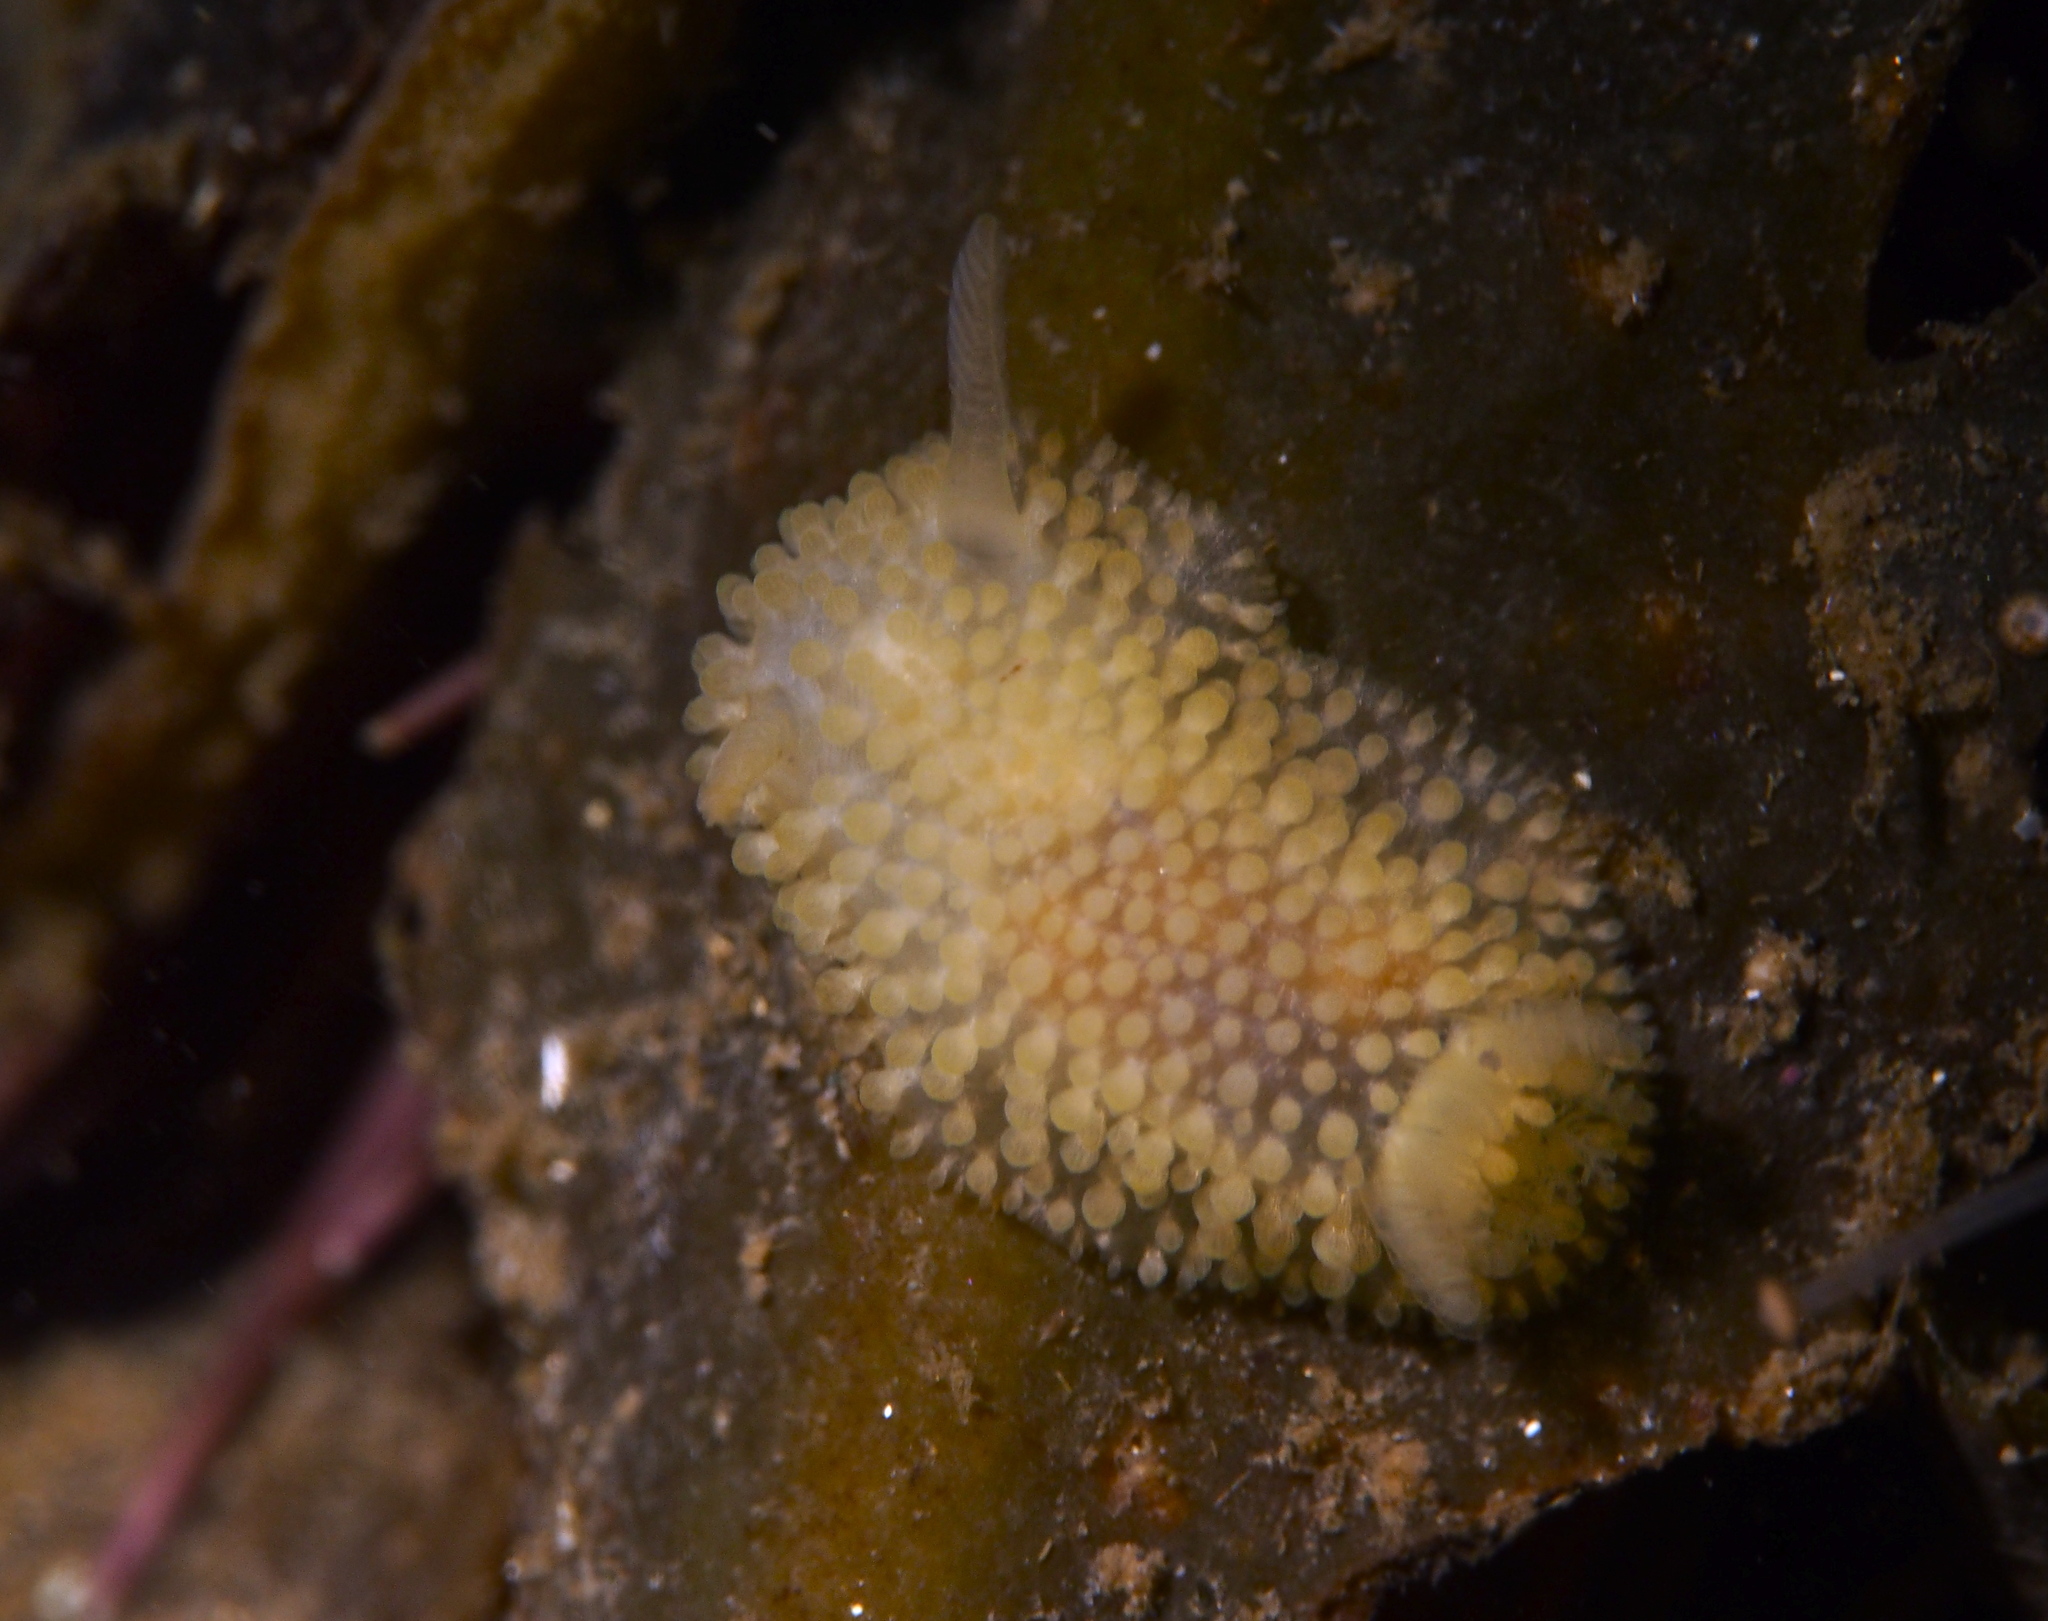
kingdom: Animalia
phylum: Mollusca
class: Gastropoda
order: Nudibranchia
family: Onchidorididae
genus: Onchidoris
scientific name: Onchidoris muricata
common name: Rough doris
